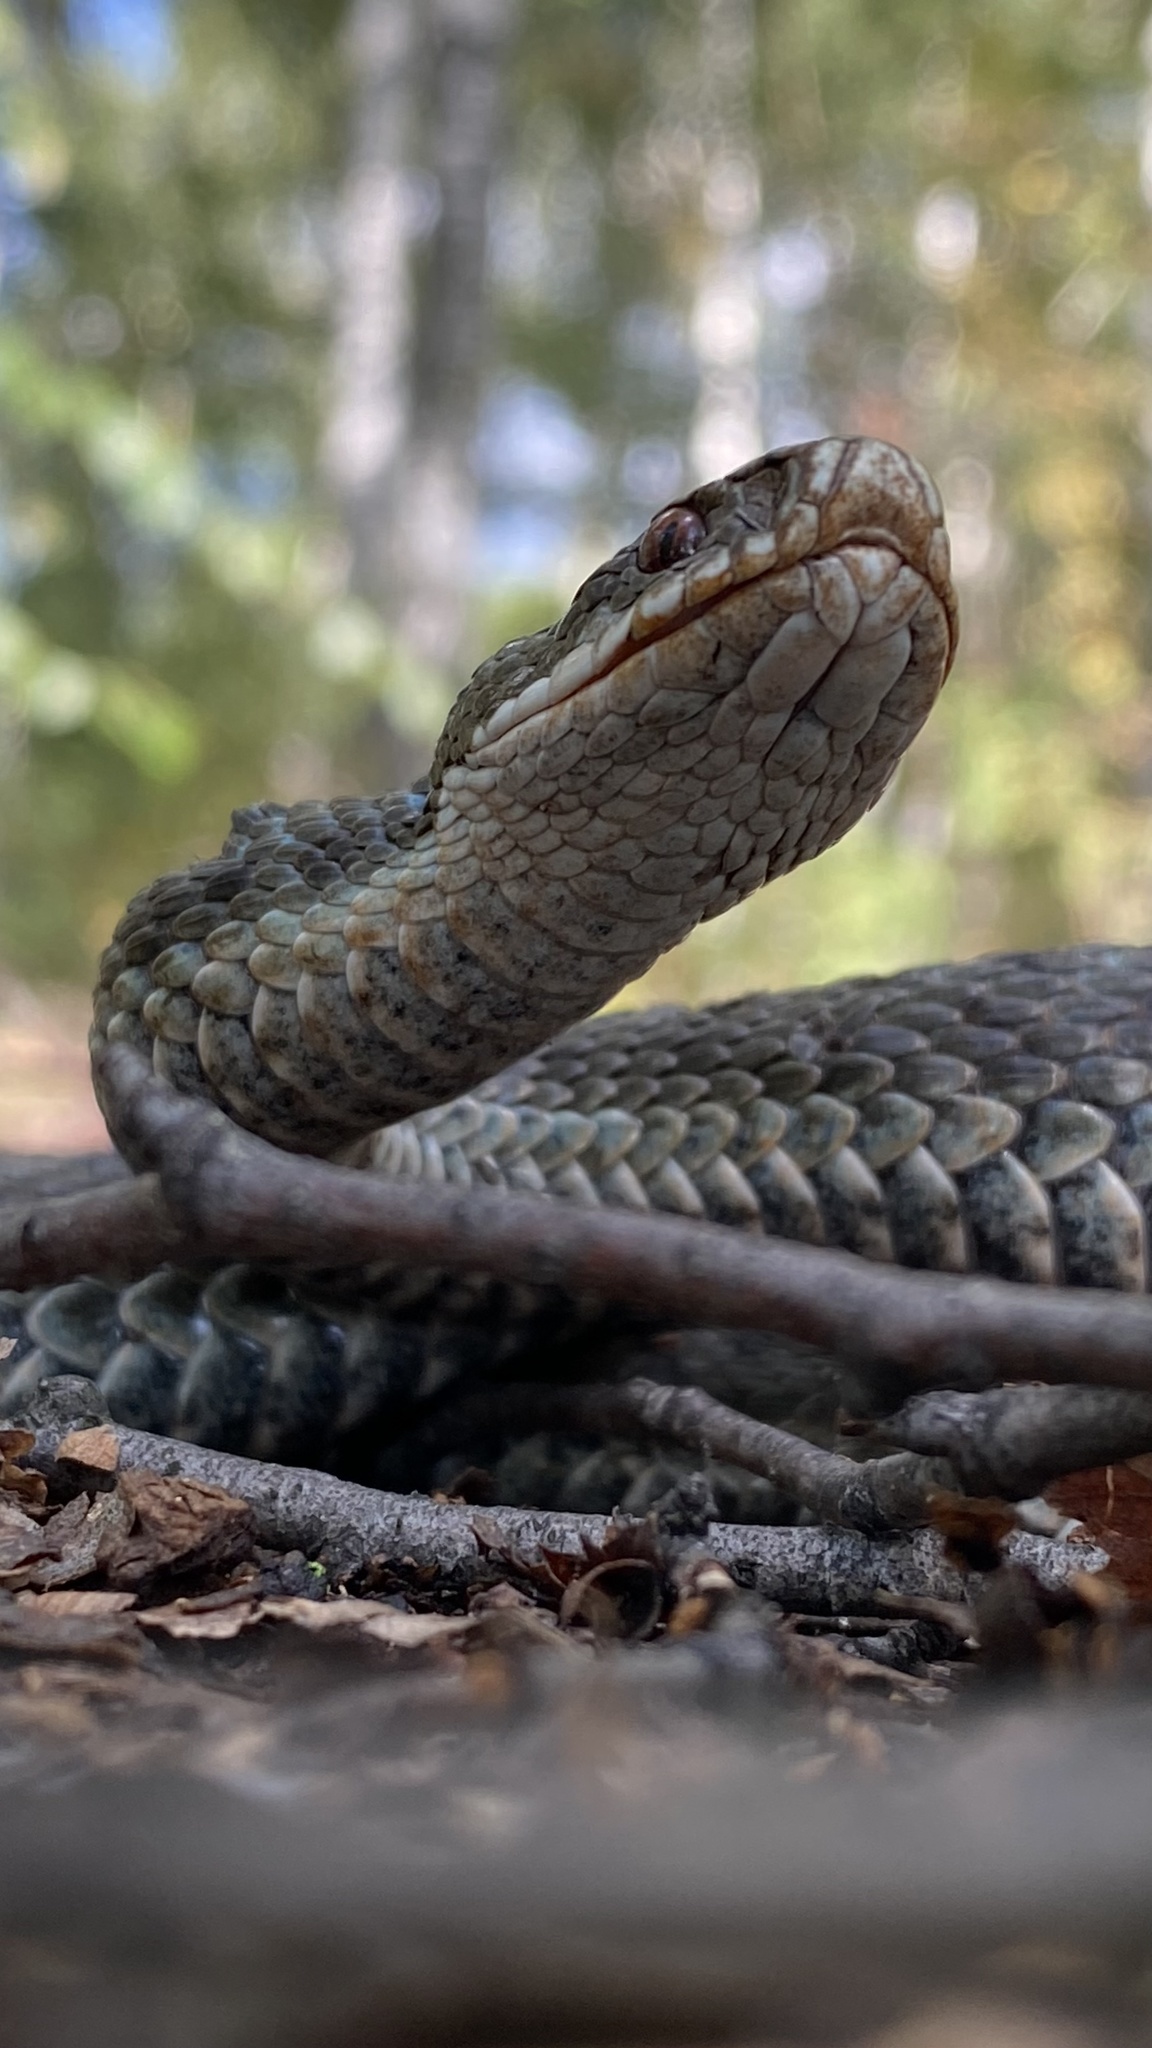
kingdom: Animalia
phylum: Chordata
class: Squamata
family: Viperidae
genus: Vipera
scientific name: Vipera berus
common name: Adder
